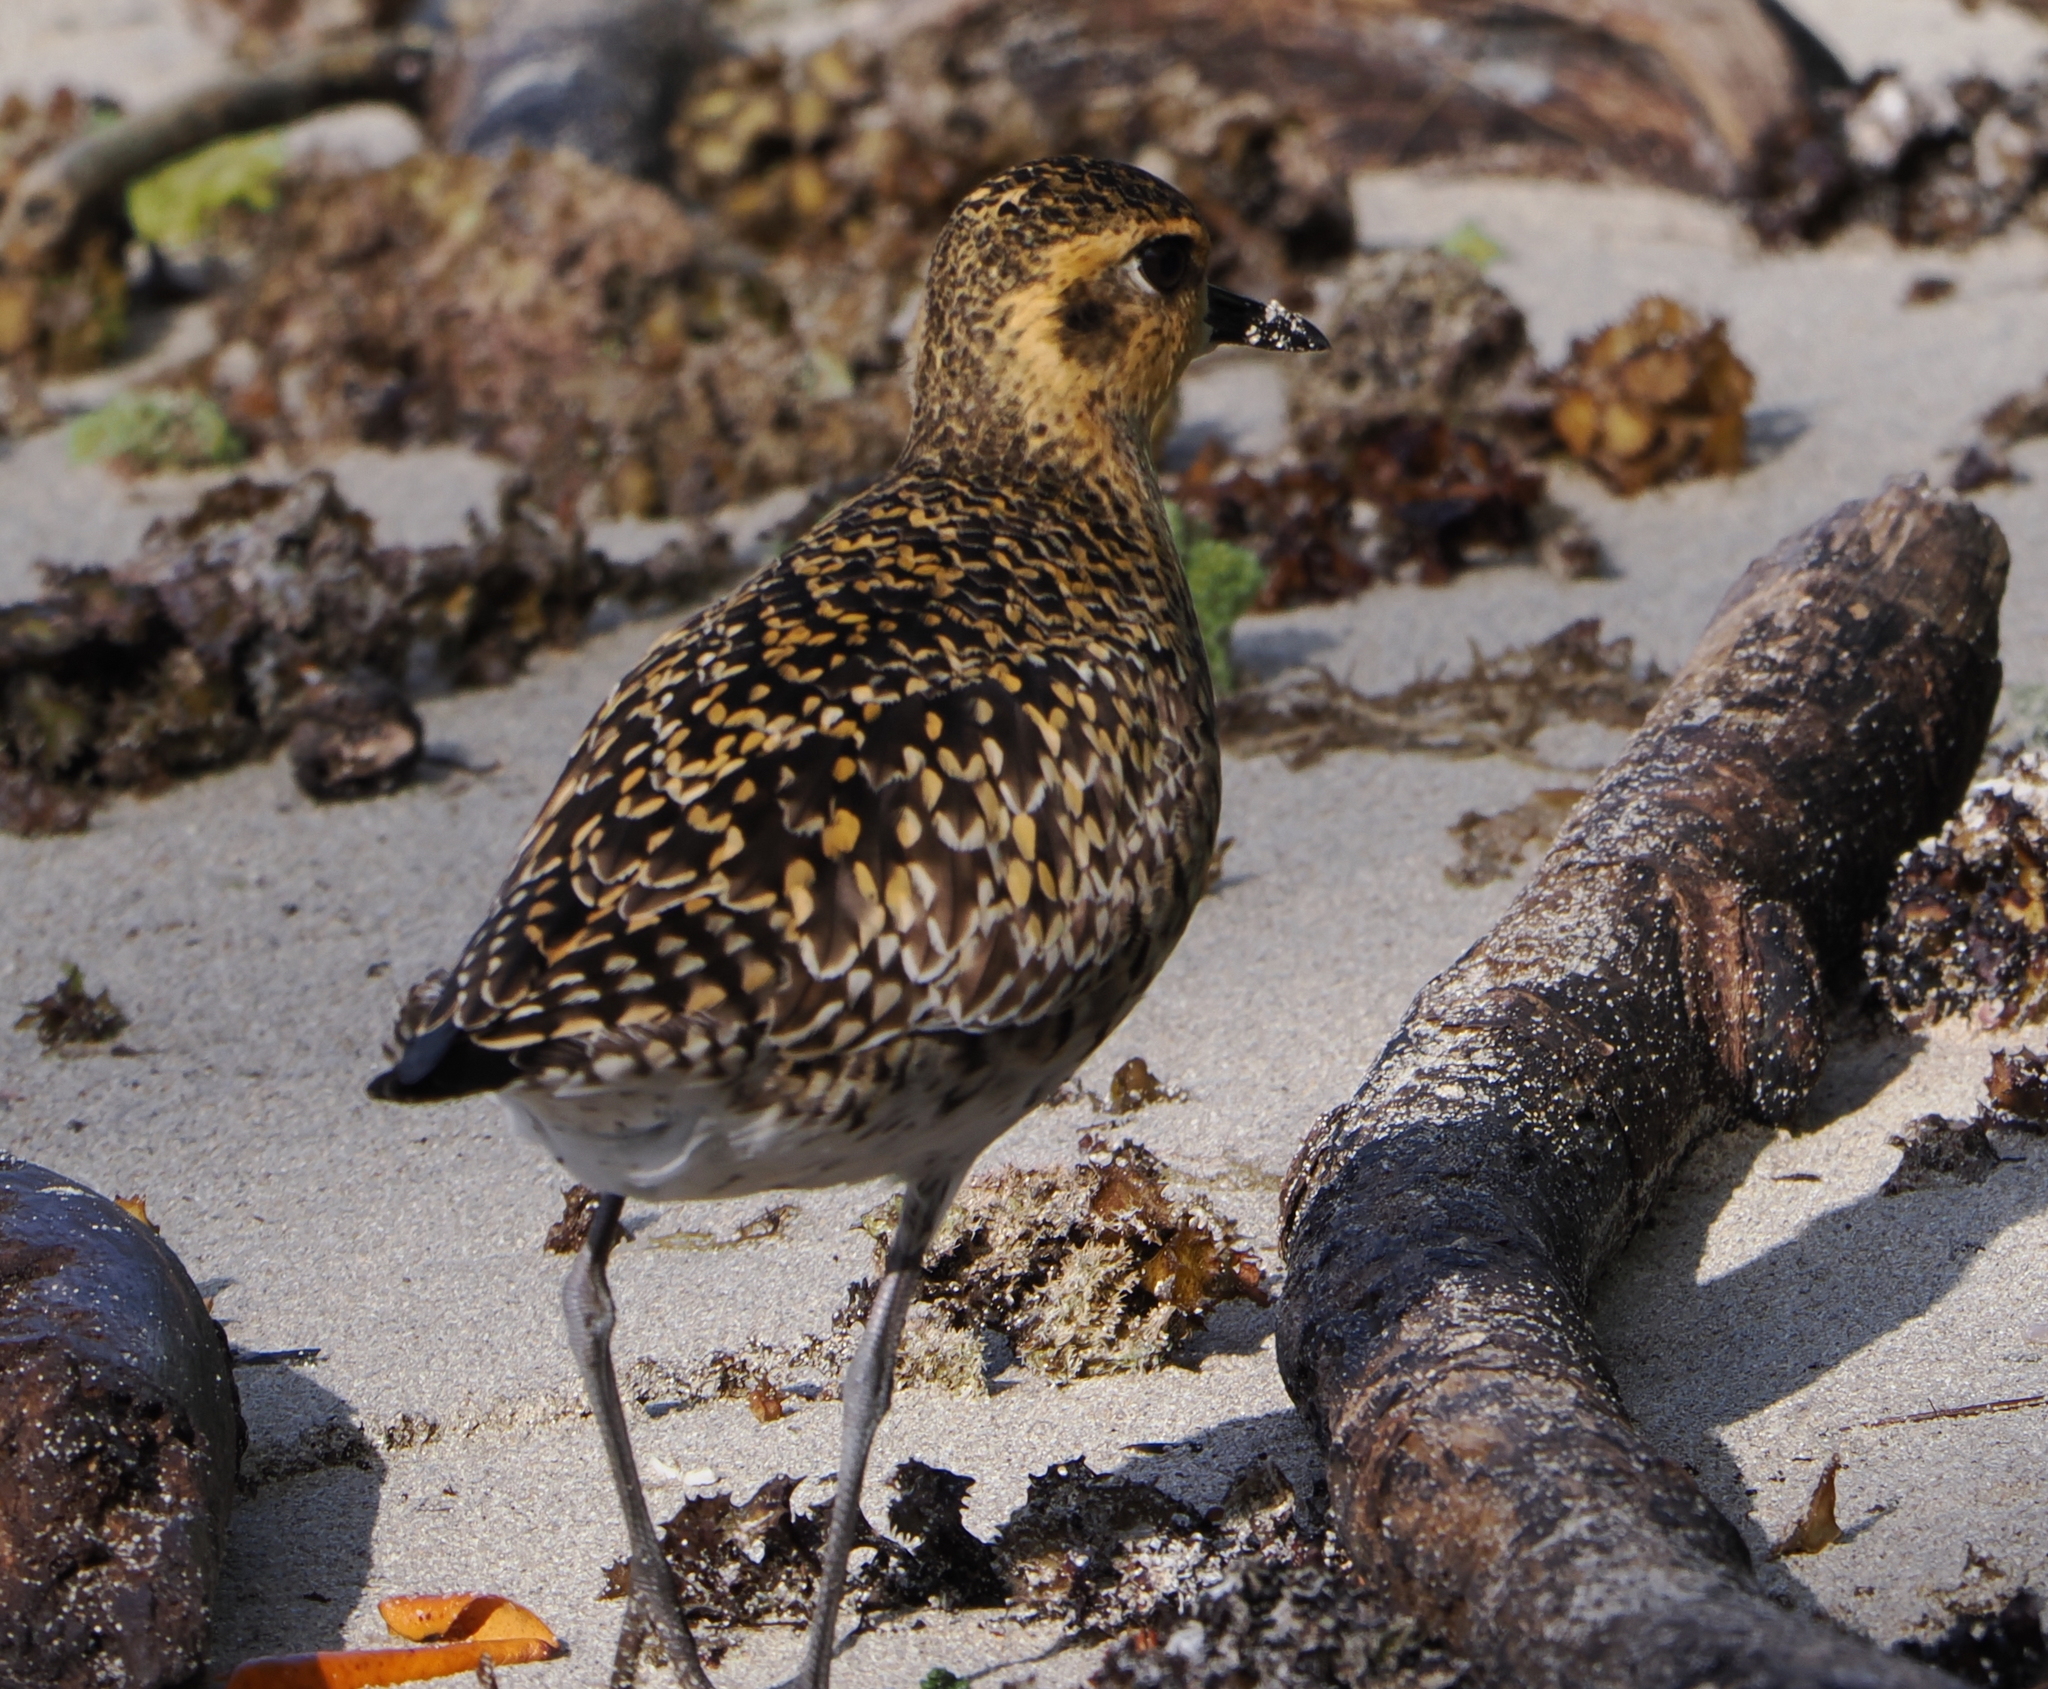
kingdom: Animalia
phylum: Chordata
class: Aves
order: Charadriiformes
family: Charadriidae
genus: Pluvialis
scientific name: Pluvialis fulva
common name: Pacific golden plover
